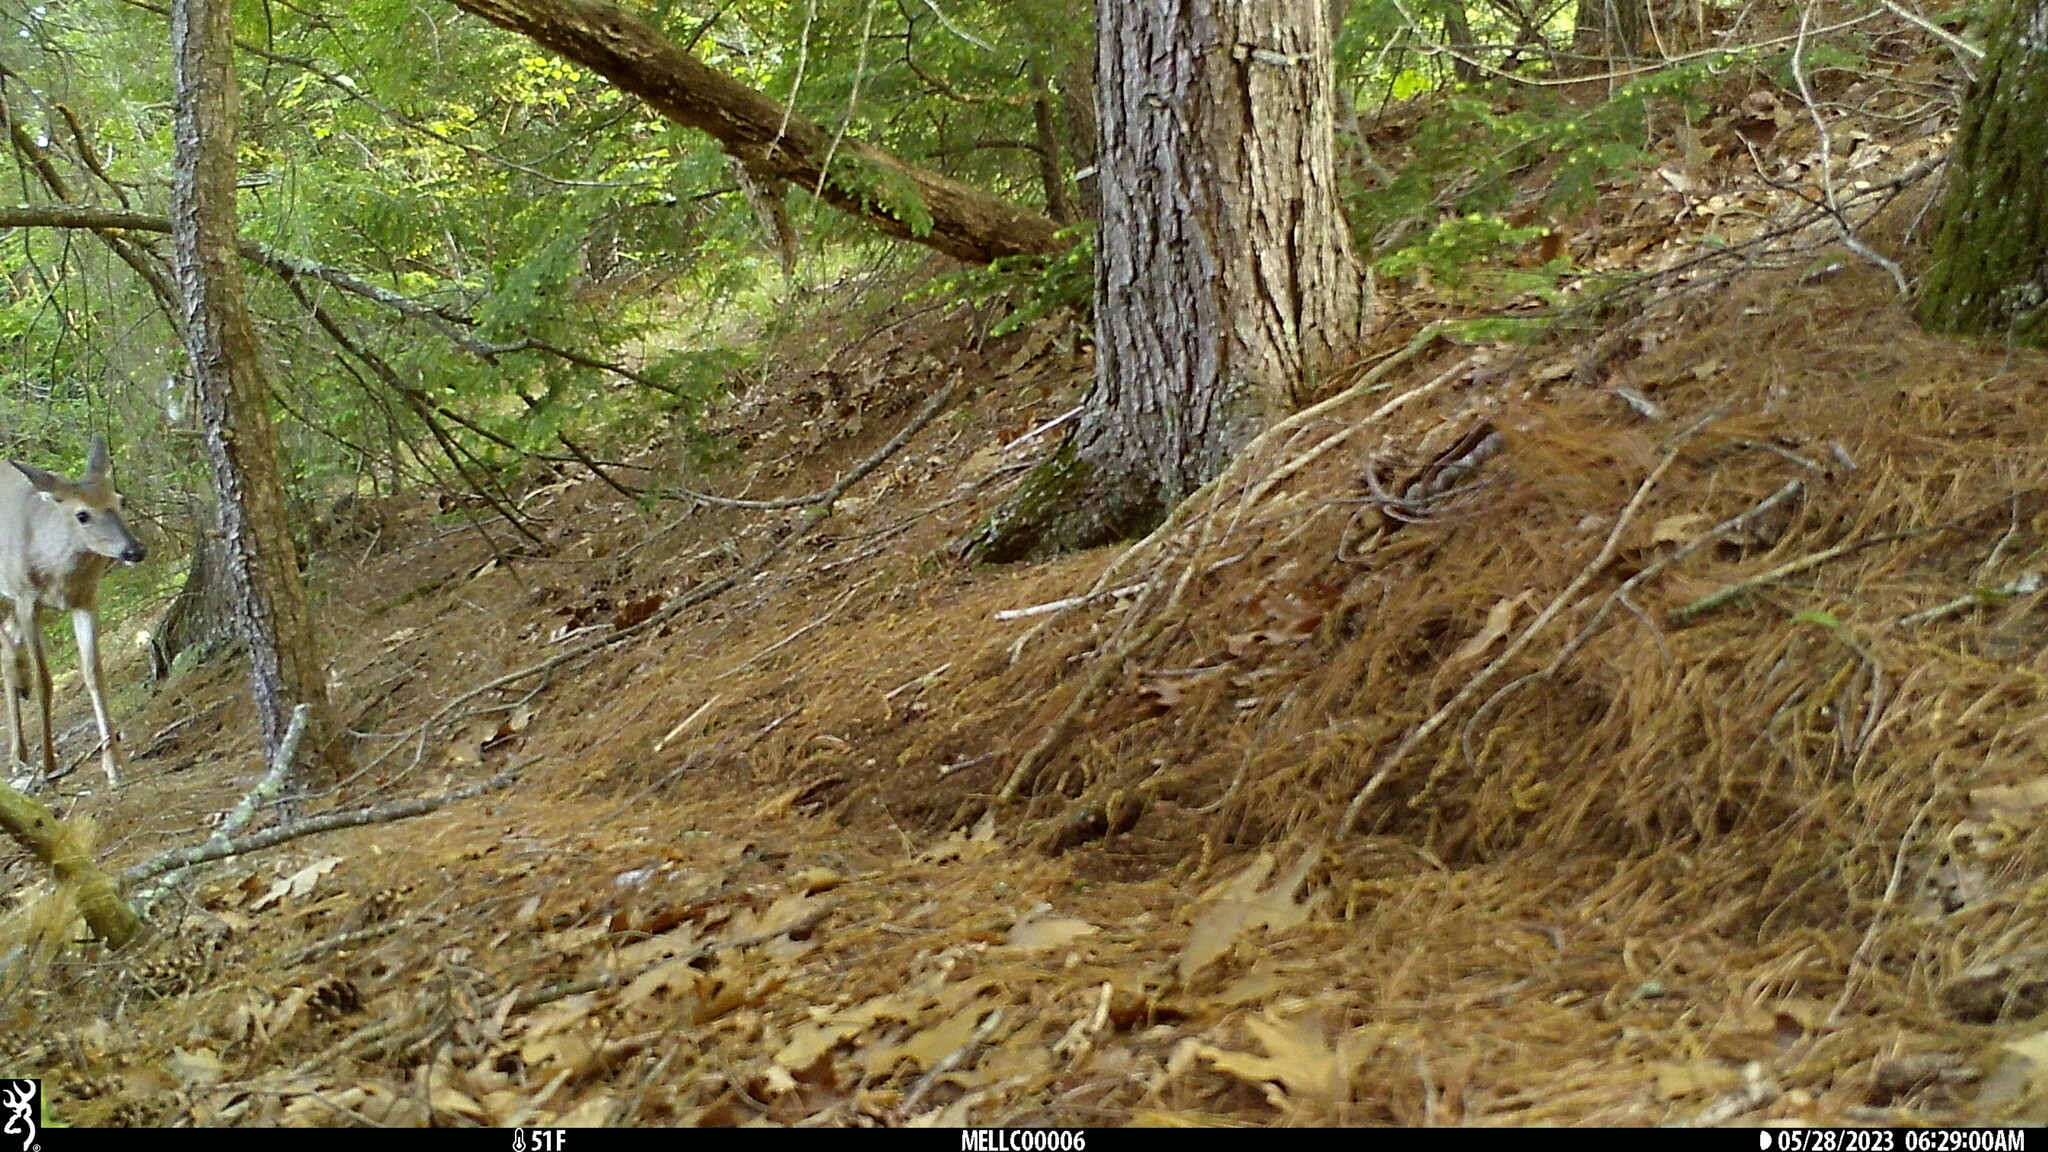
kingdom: Animalia
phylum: Chordata
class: Mammalia
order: Artiodactyla
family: Cervidae
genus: Odocoileus
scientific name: Odocoileus virginianus
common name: White-tailed deer
